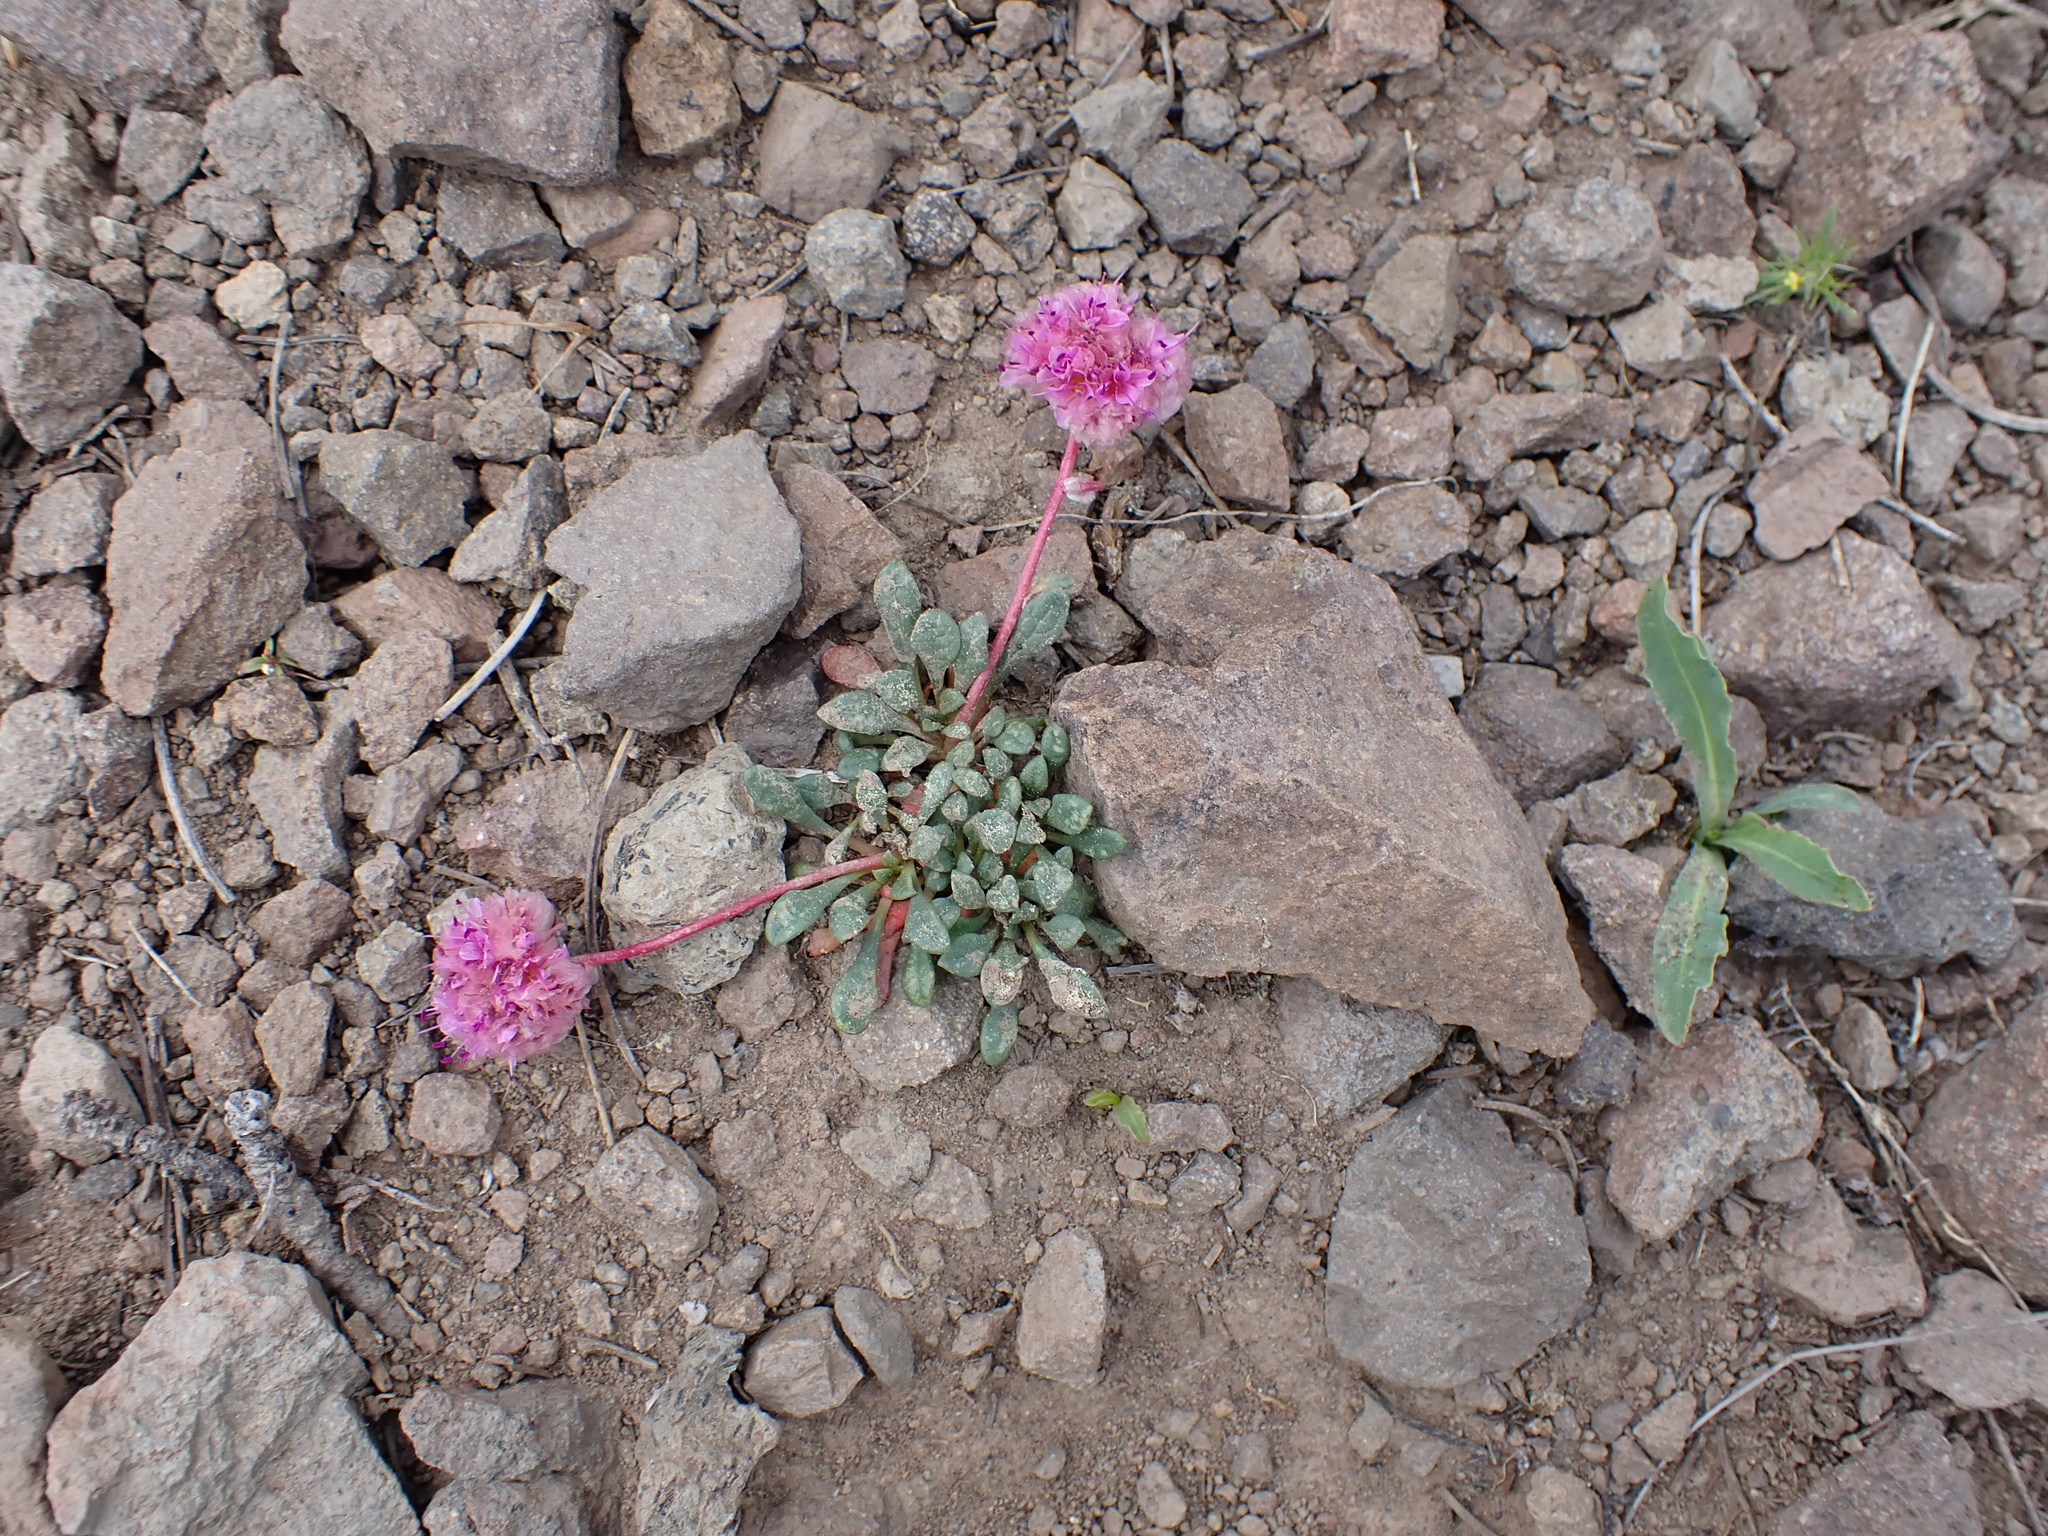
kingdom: Plantae
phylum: Tracheophyta
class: Magnoliopsida
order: Caryophyllales
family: Montiaceae
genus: Calyptridium
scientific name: Calyptridium umbellatum
